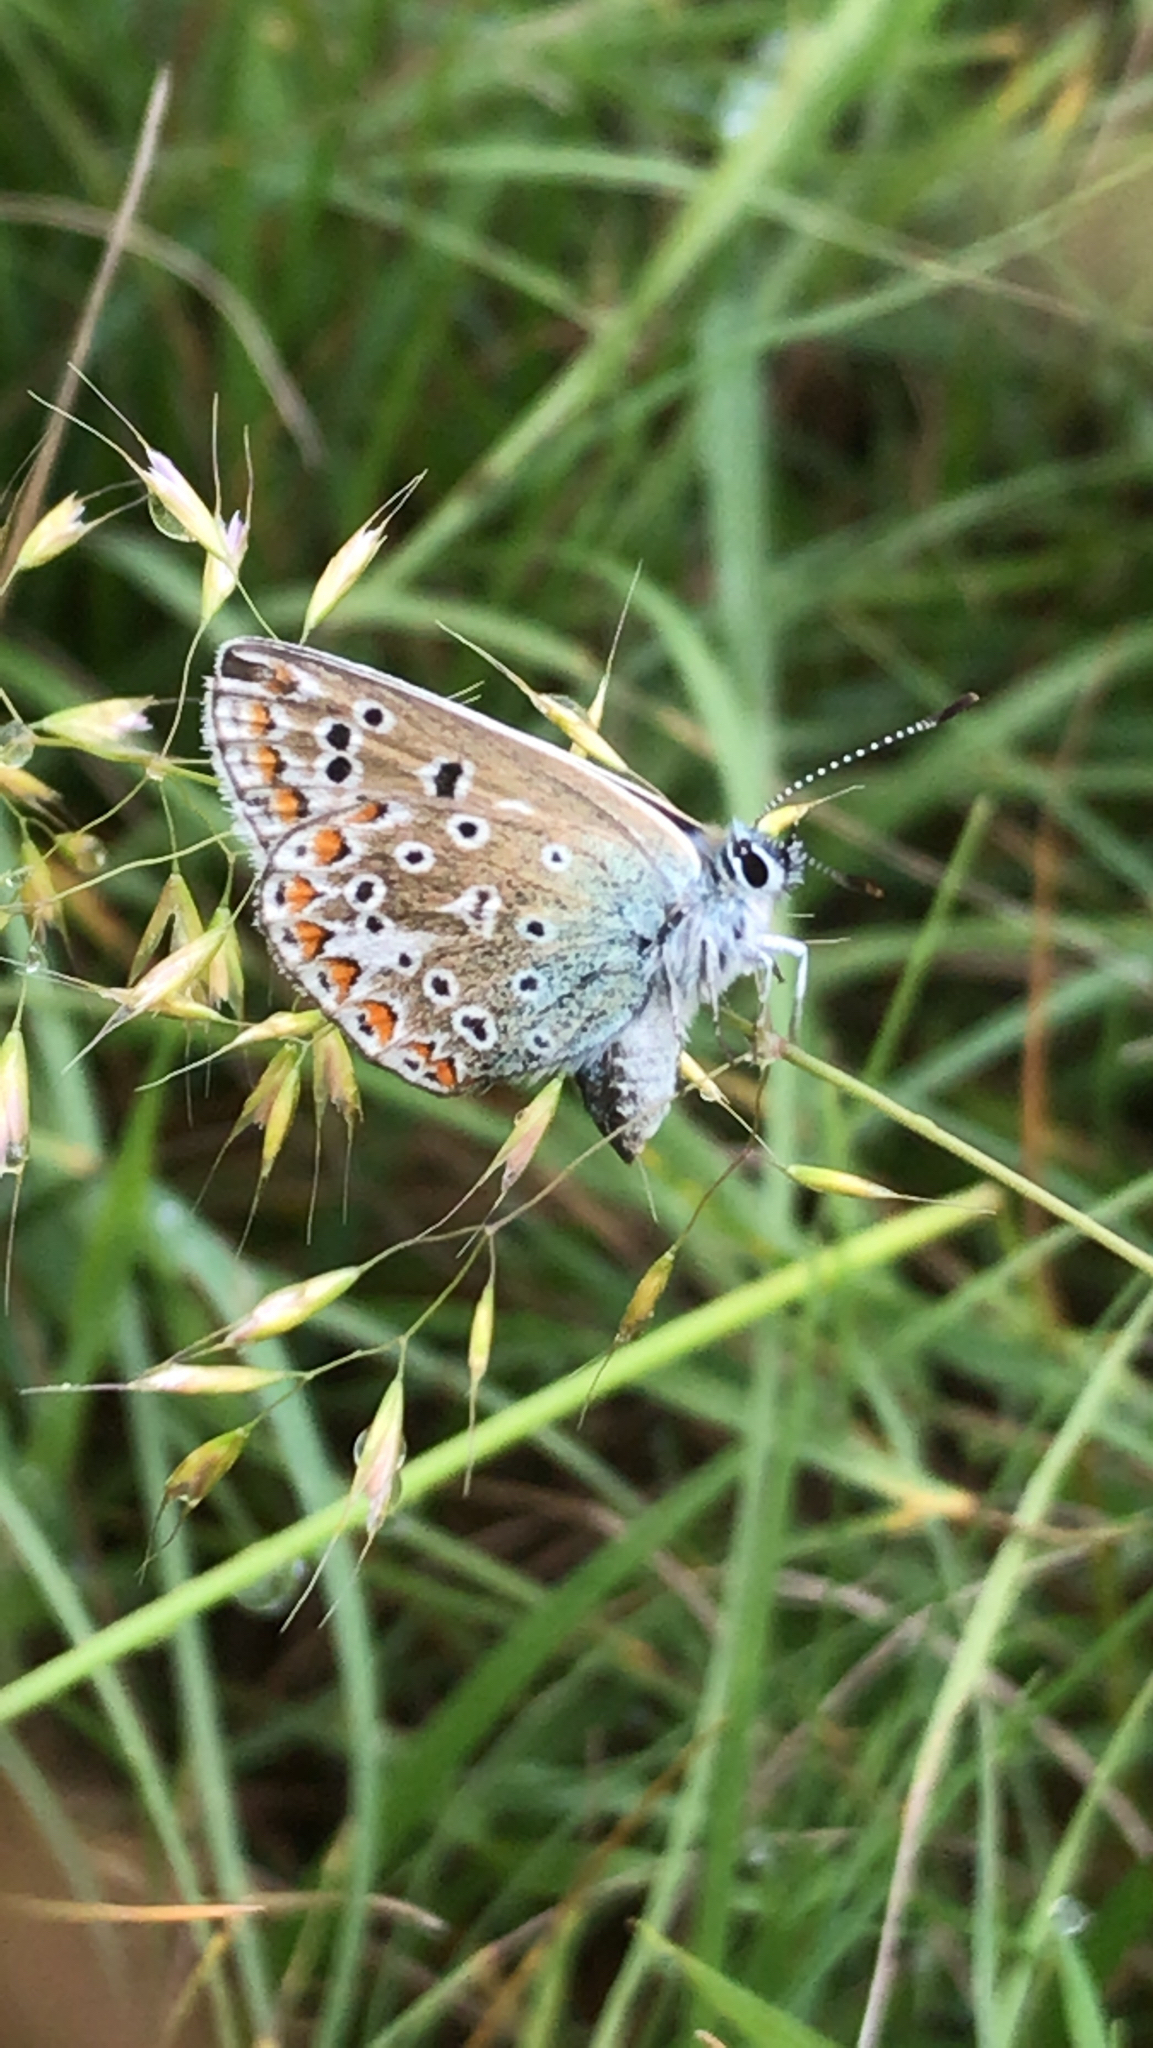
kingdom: Animalia
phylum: Arthropoda
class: Insecta
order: Lepidoptera
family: Lycaenidae
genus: Polyommatus
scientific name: Polyommatus icarus
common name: Common blue
